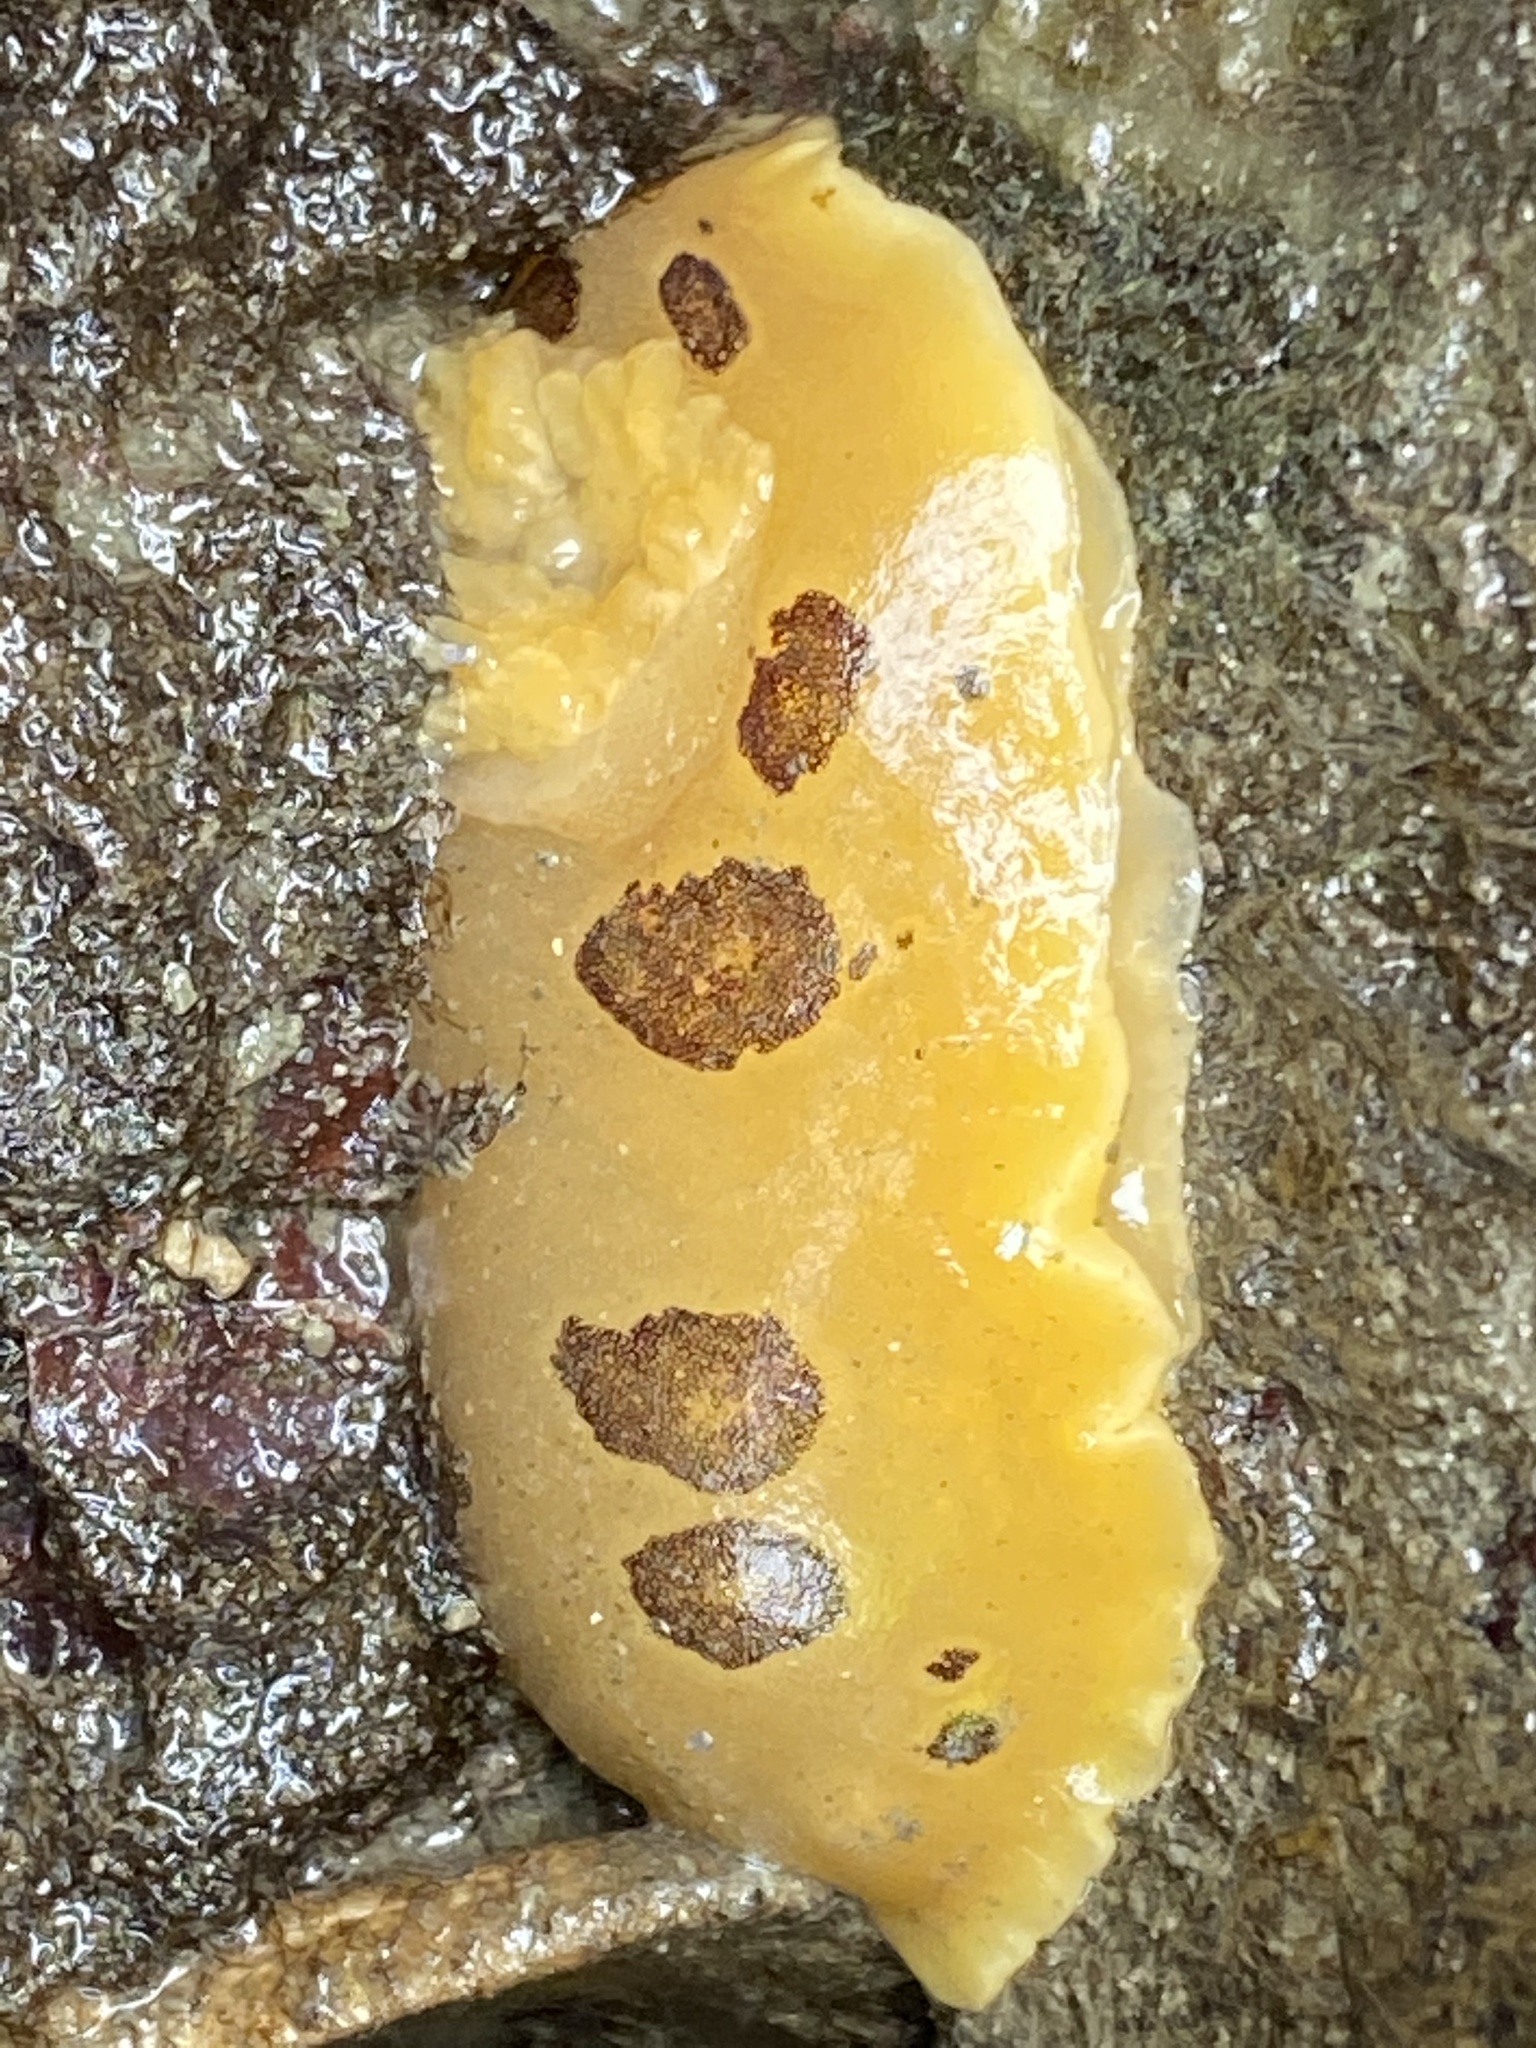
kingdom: Animalia
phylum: Mollusca
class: Gastropoda
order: Nudibranchia
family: Discodorididae
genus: Diaulula
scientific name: Diaulula sandiegensis
